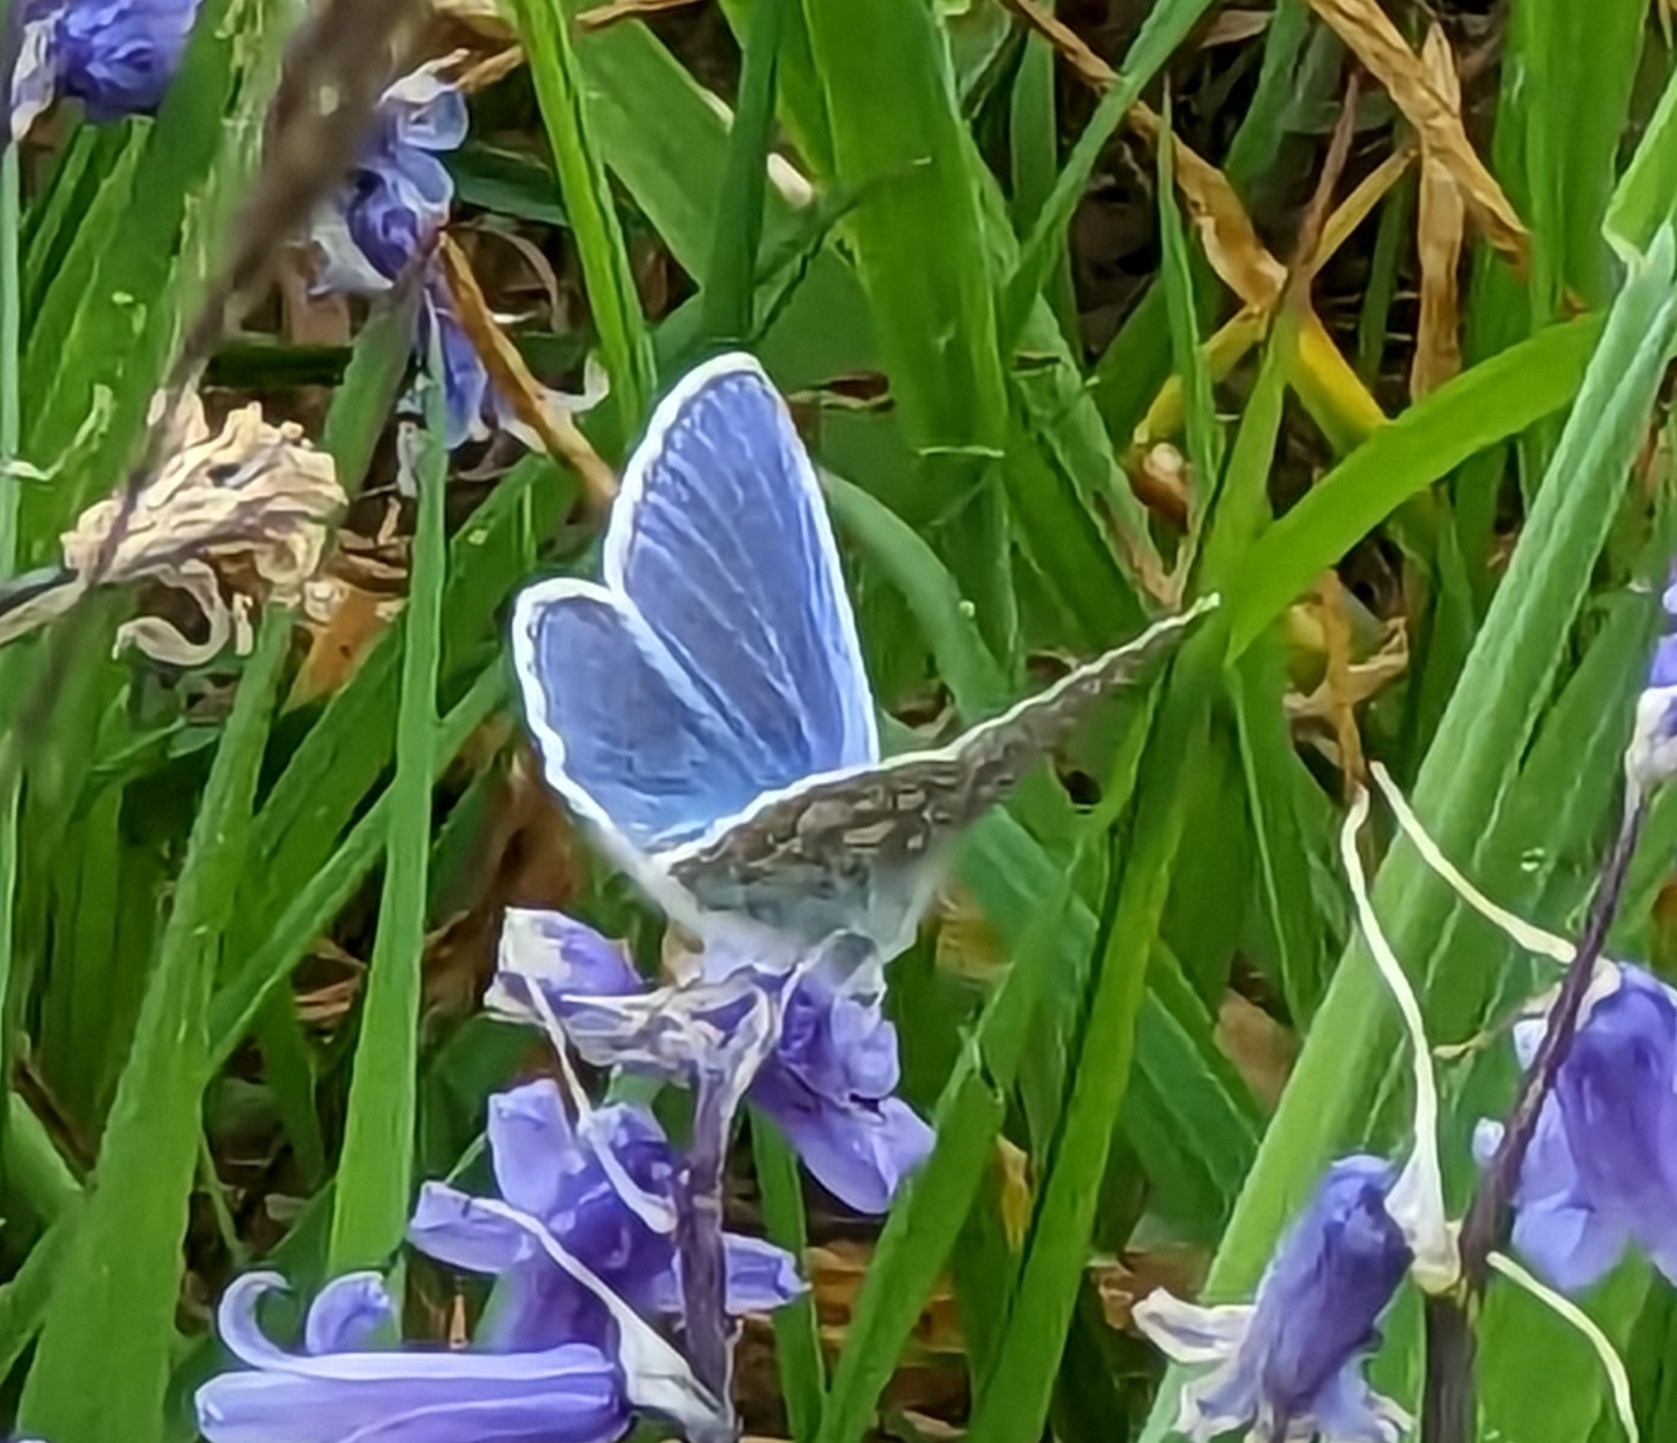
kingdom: Animalia
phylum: Arthropoda
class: Insecta
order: Lepidoptera
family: Lycaenidae
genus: Polyommatus
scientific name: Polyommatus icarus
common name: Common blue
